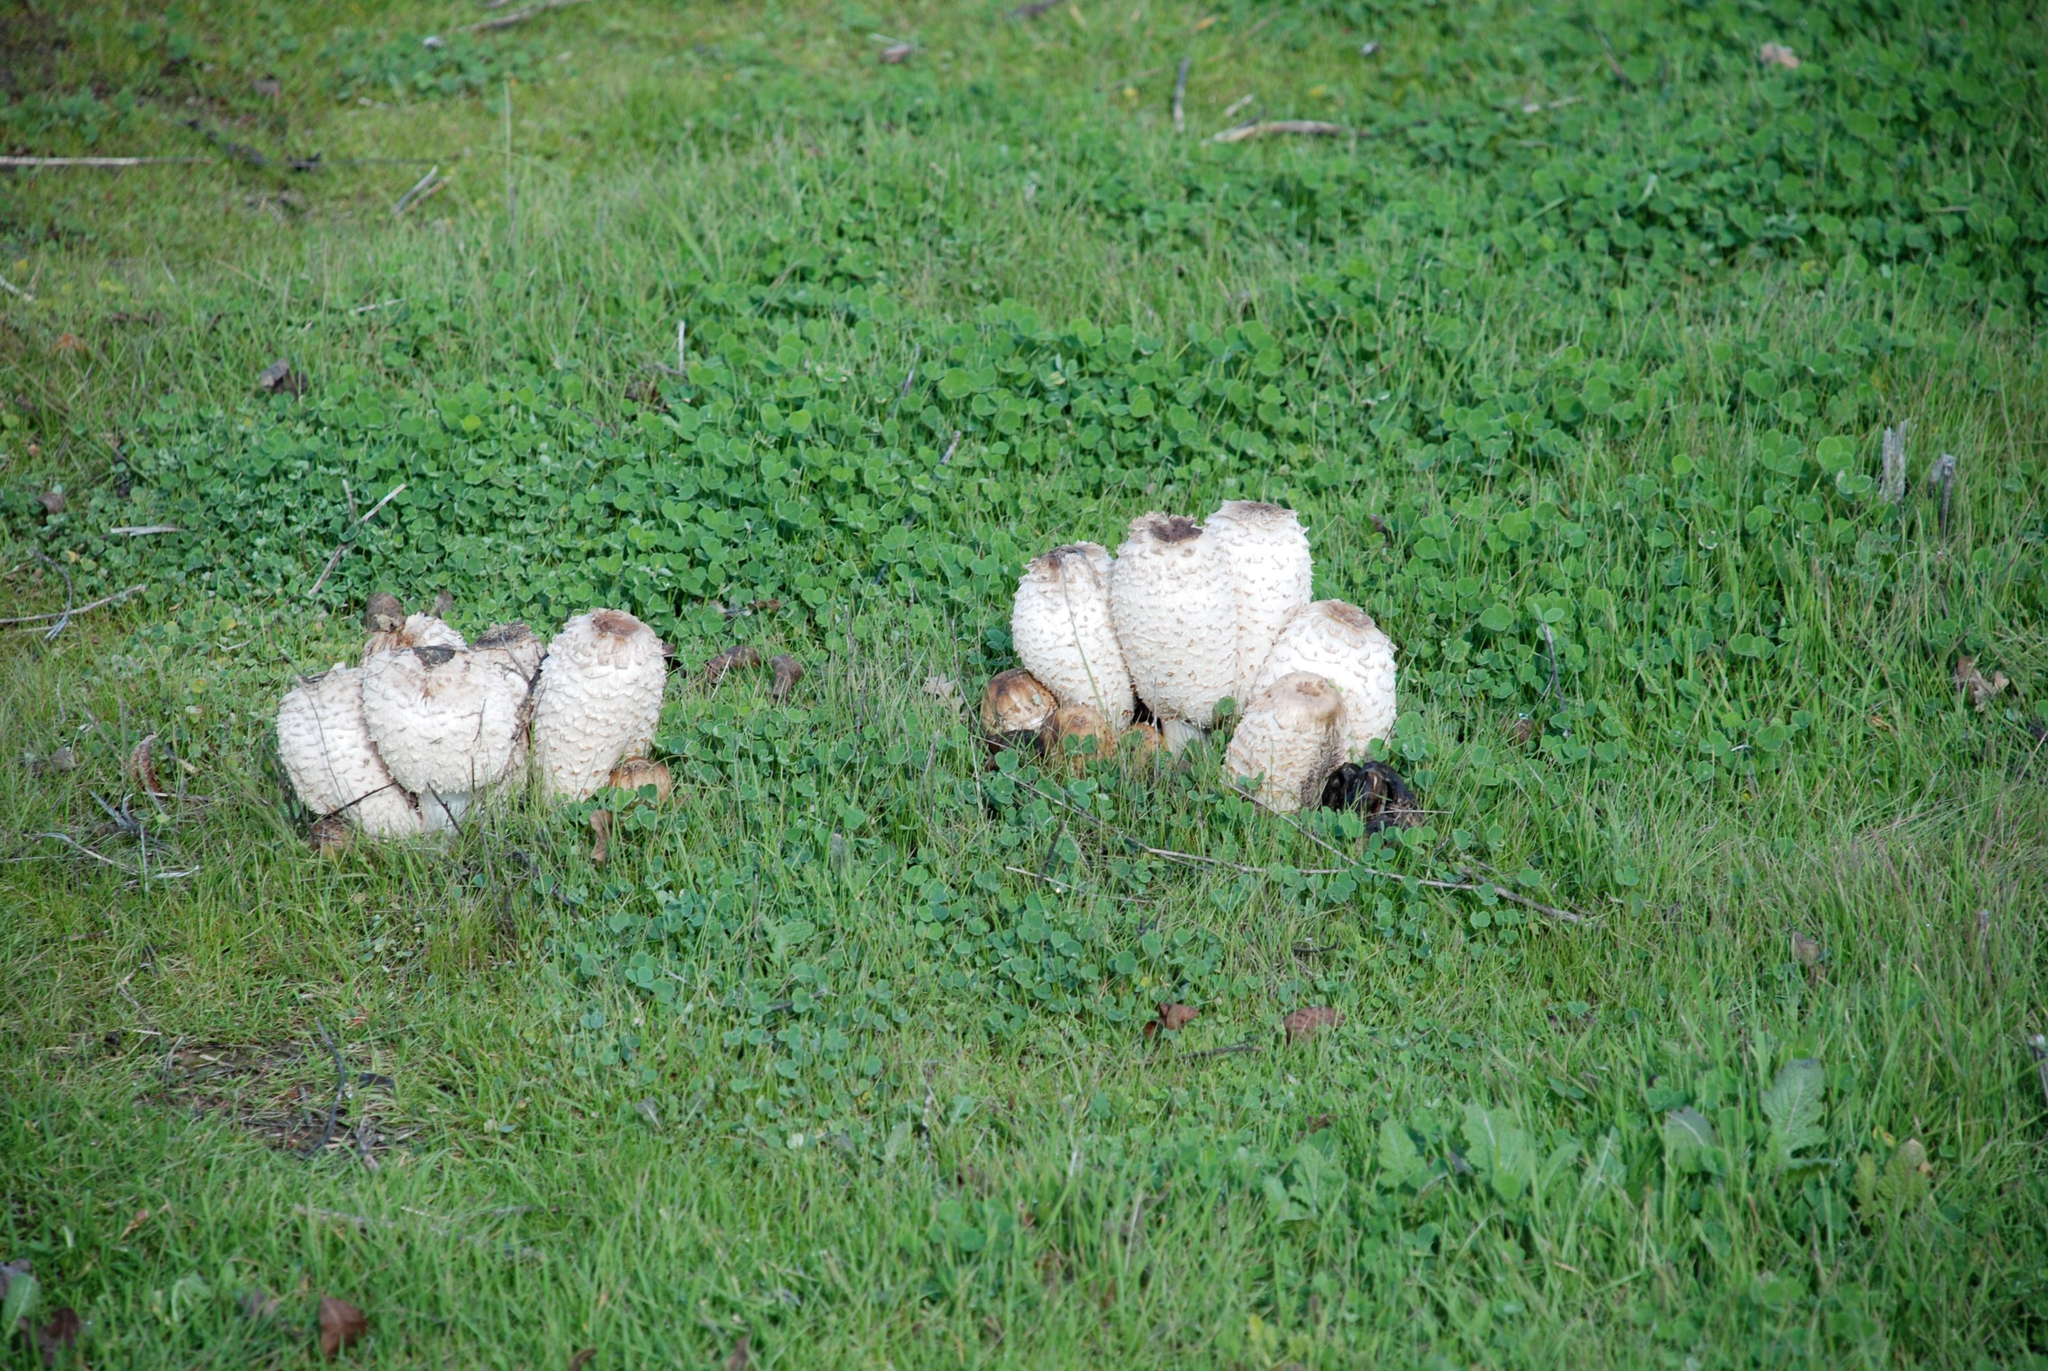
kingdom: Fungi
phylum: Basidiomycota
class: Agaricomycetes
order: Agaricales
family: Agaricaceae
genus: Coprinus
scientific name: Coprinus comatus
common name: Lawyer's wig
